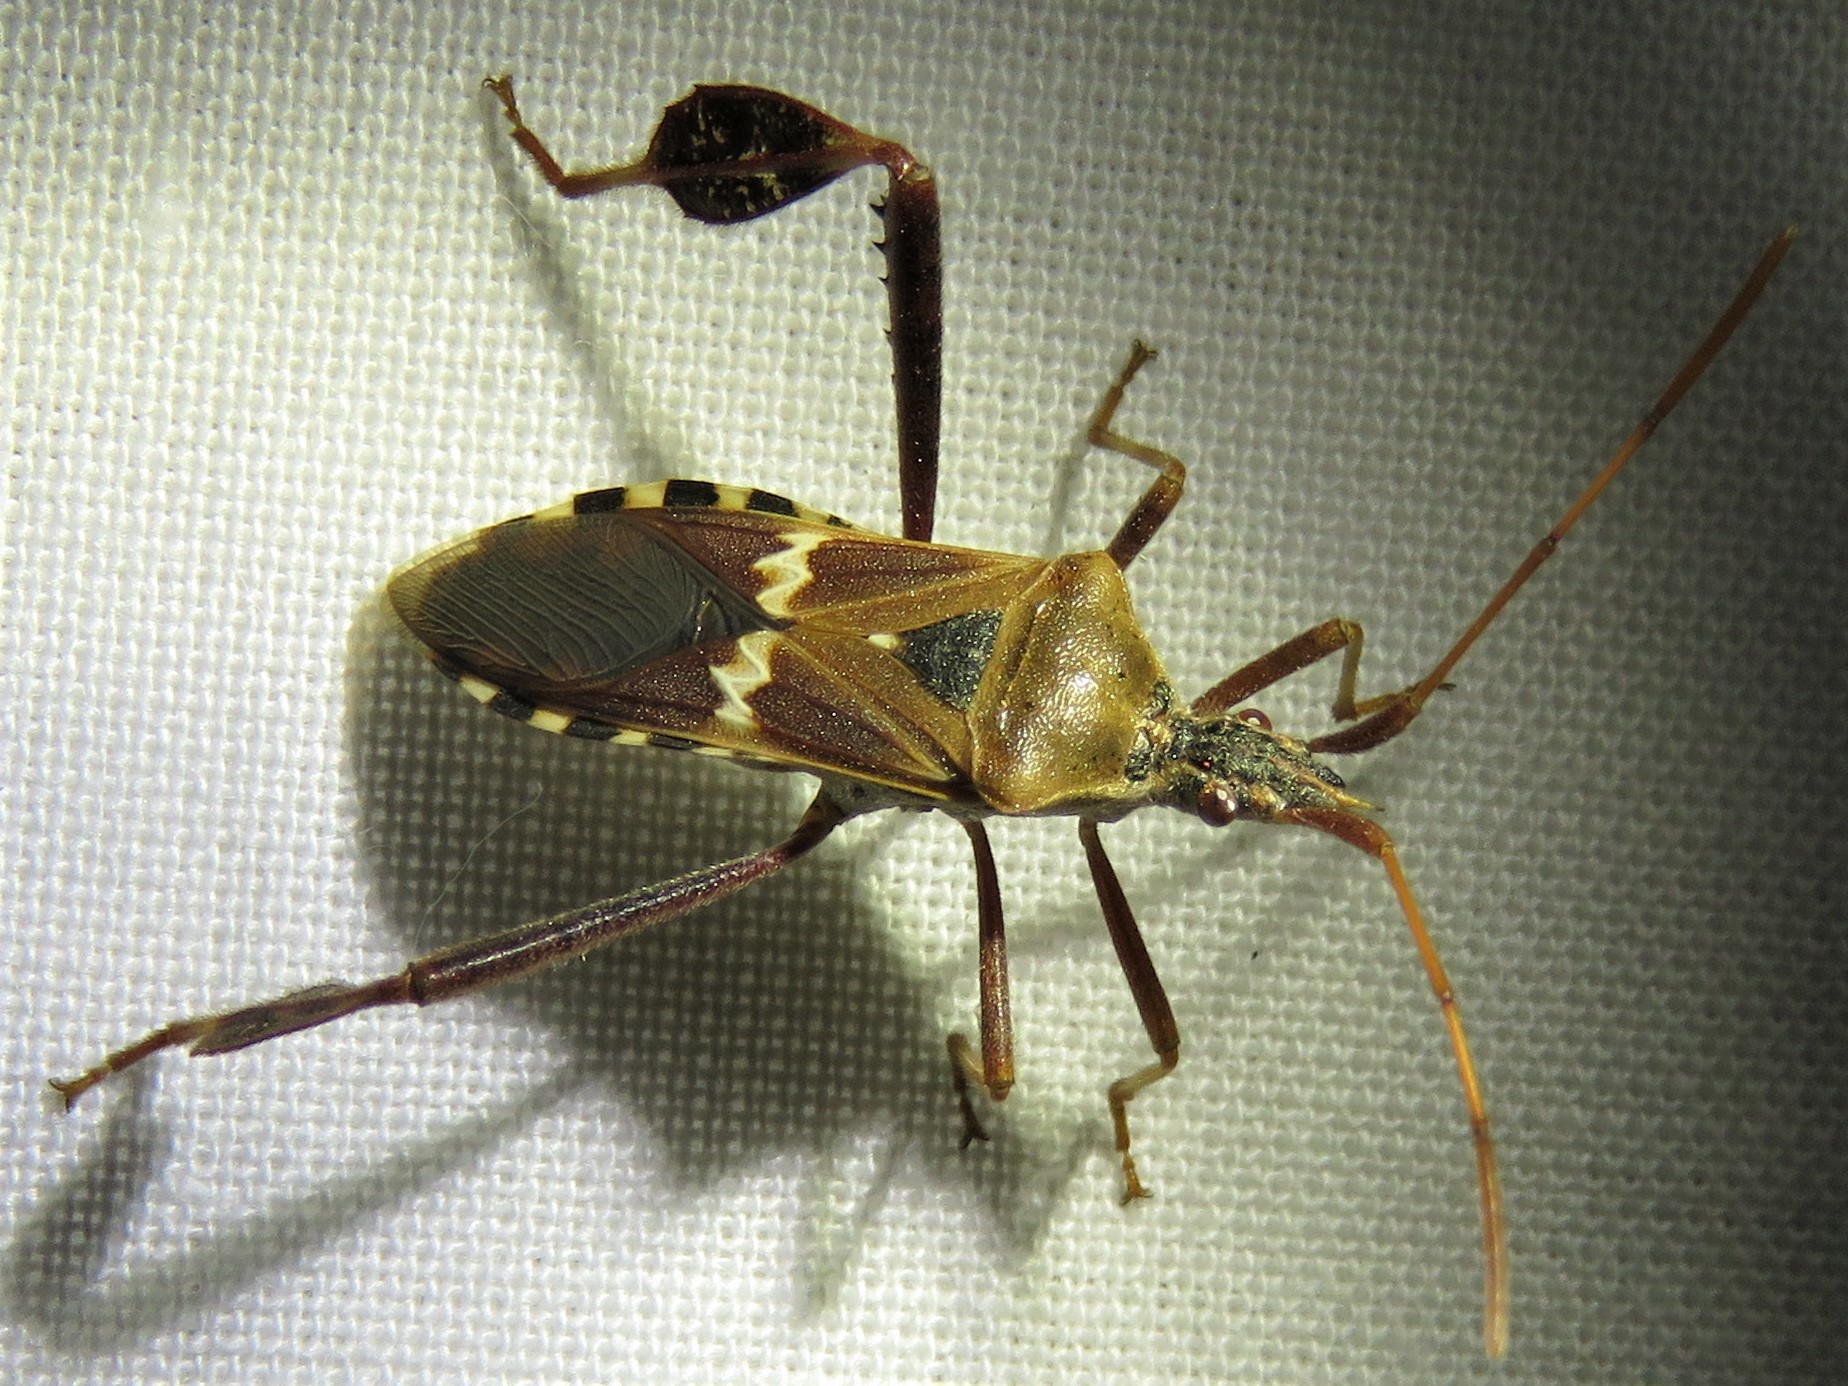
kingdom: Animalia
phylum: Arthropoda
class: Insecta
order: Hemiptera
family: Coreidae
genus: Leptoglossus
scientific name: Leptoglossus clypealis
